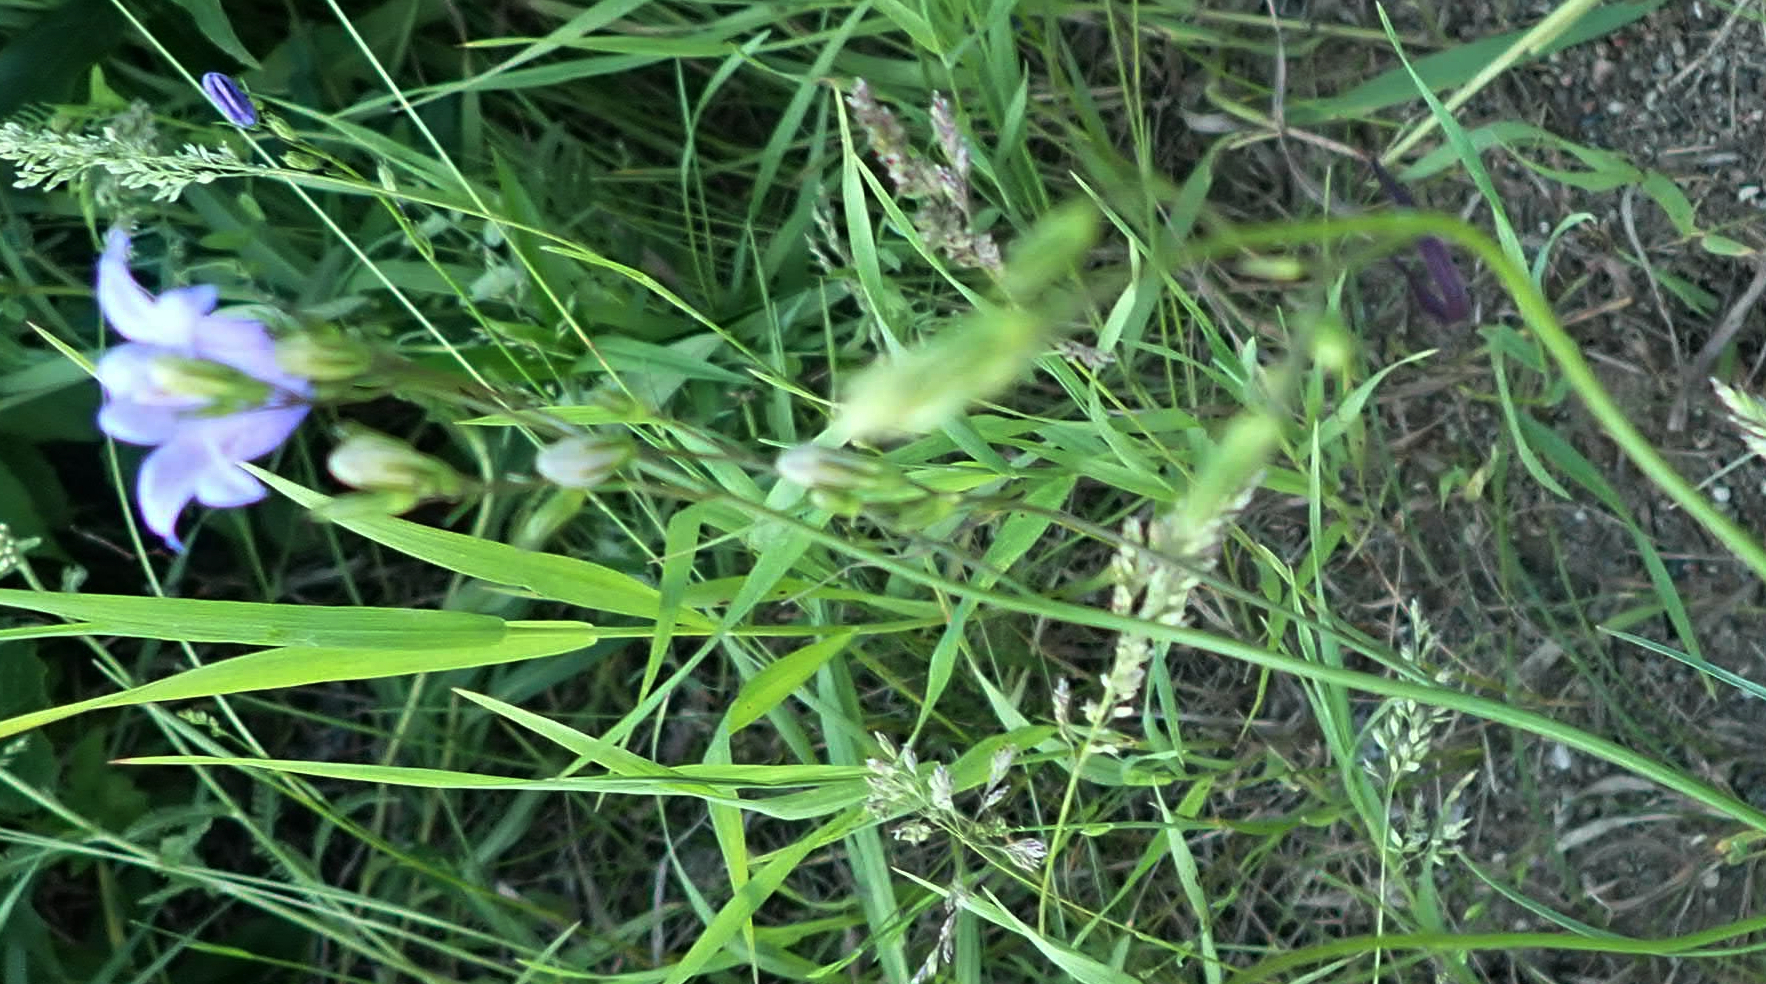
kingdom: Plantae
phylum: Tracheophyta
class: Magnoliopsida
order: Asterales
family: Campanulaceae
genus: Campanula
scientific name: Campanula petiolata
